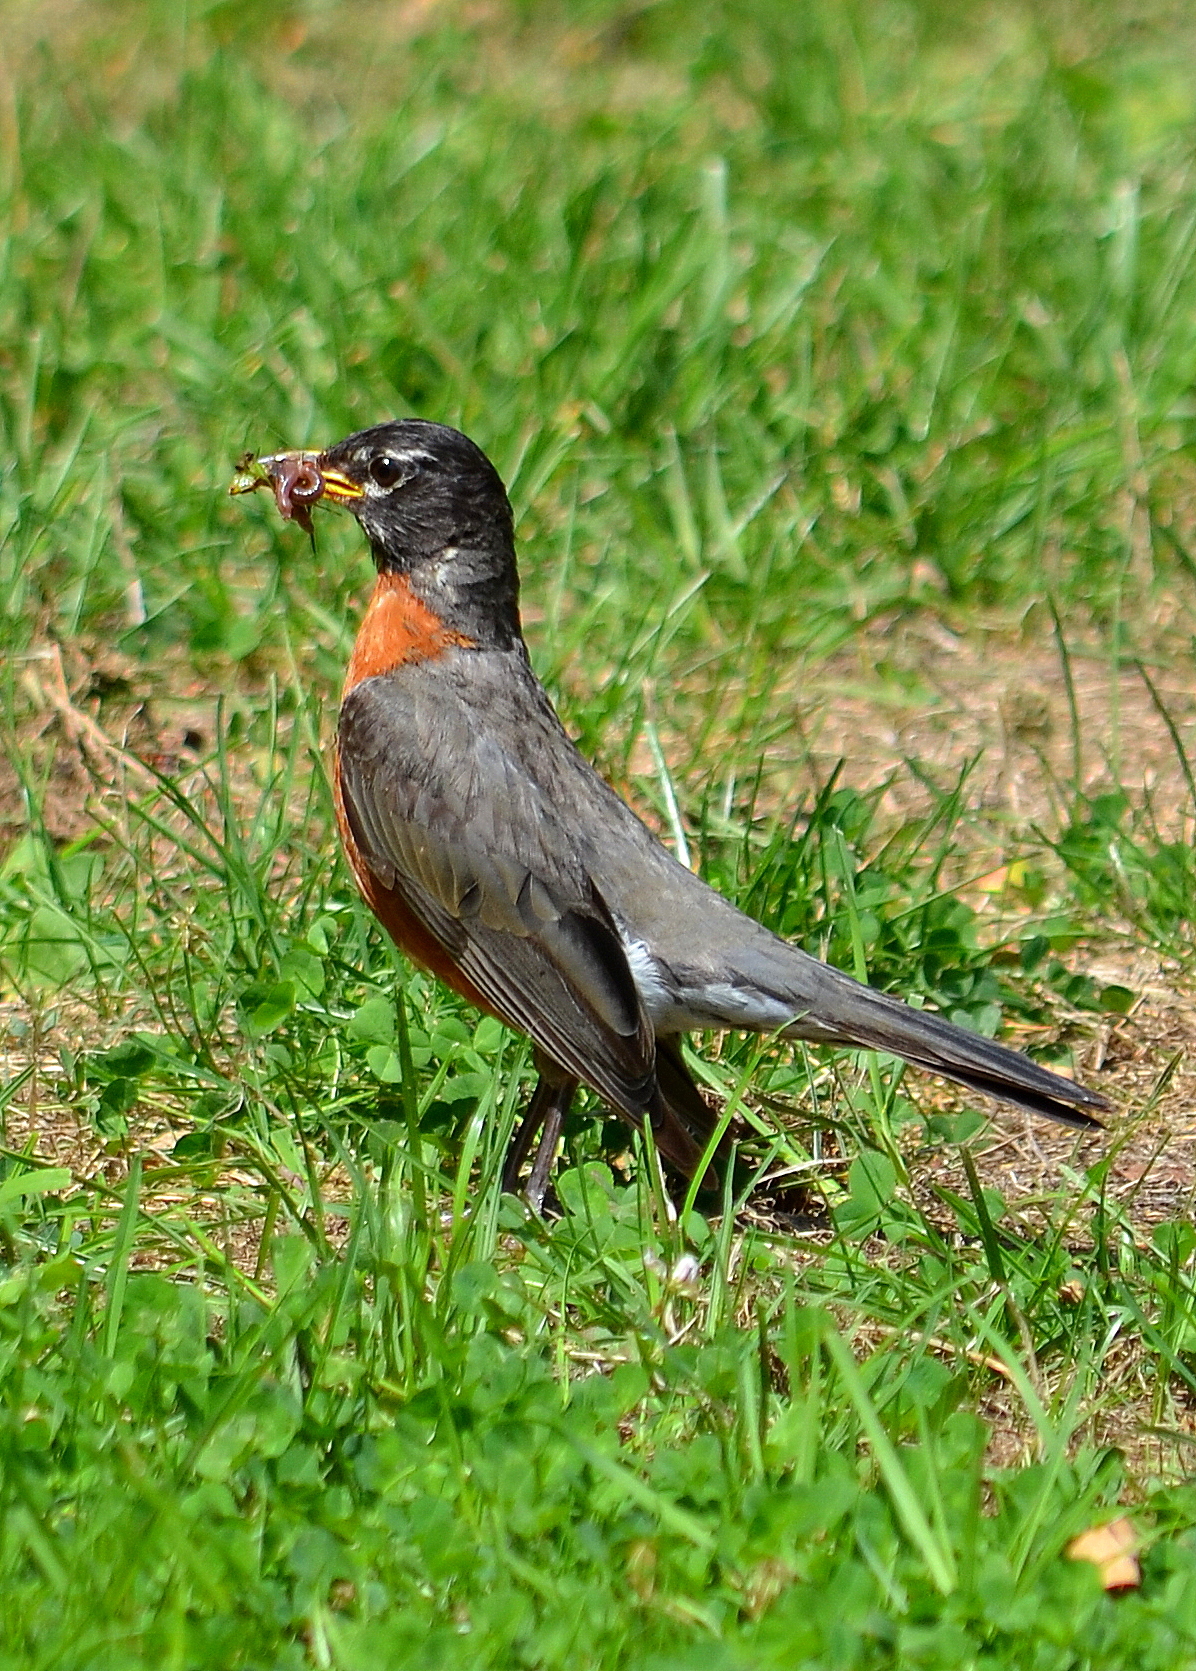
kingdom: Animalia
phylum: Chordata
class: Aves
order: Passeriformes
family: Turdidae
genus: Turdus
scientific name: Turdus migratorius
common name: American robin
